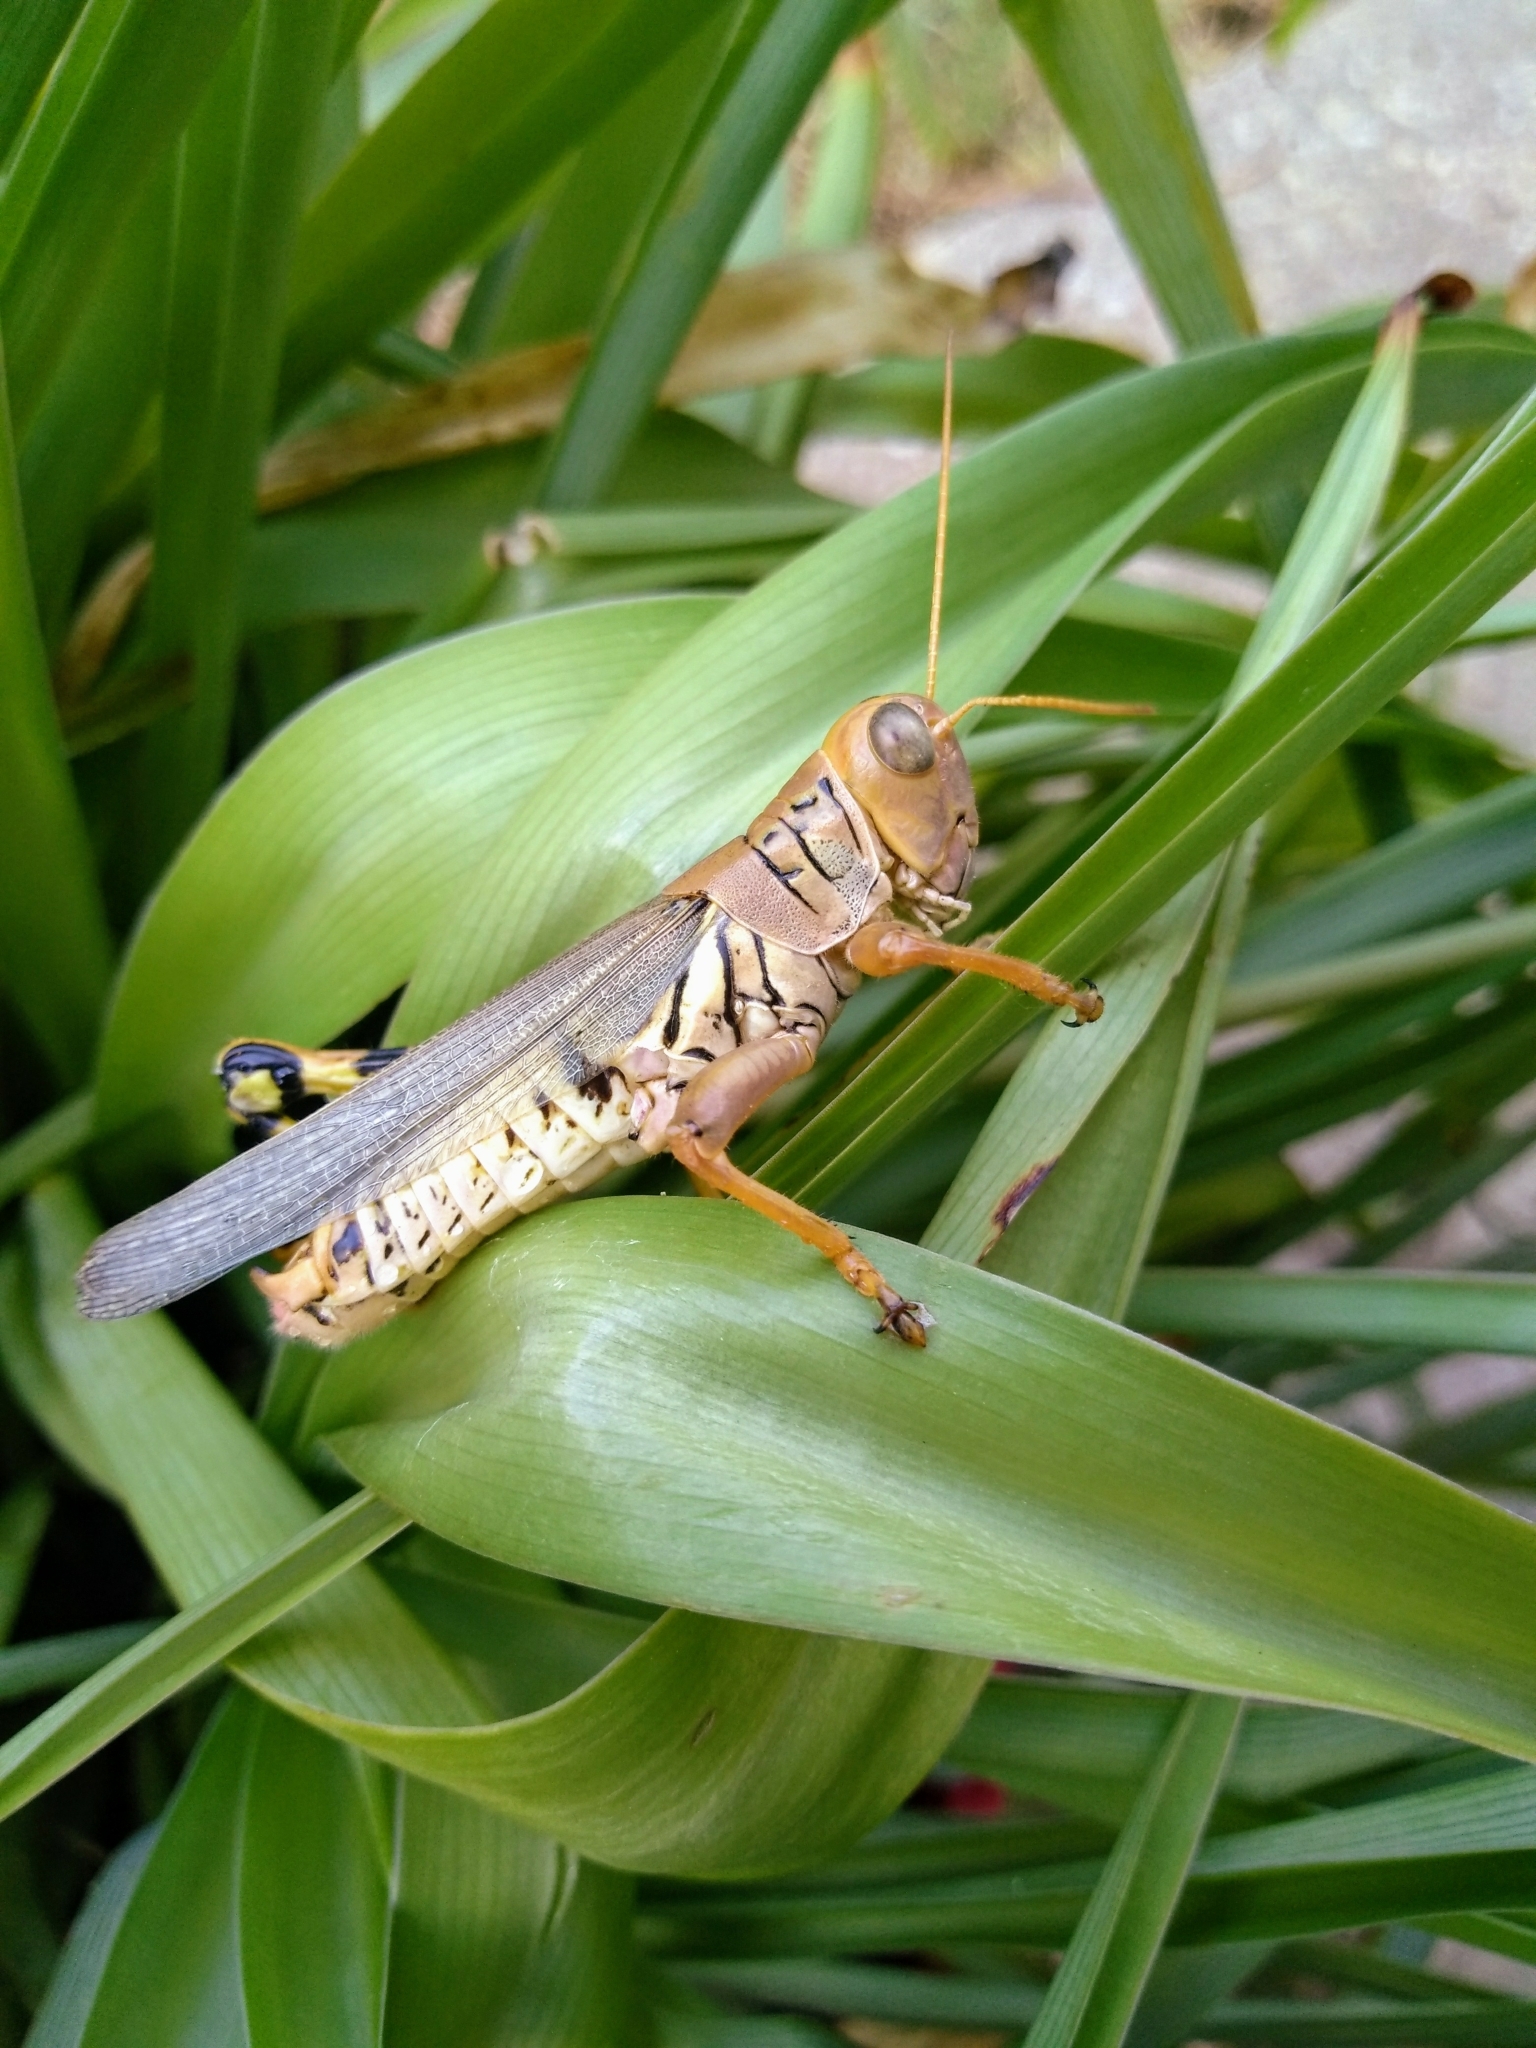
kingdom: Animalia
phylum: Arthropoda
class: Insecta
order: Orthoptera
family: Acrididae
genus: Melanoplus
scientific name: Melanoplus differentialis
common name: Differential grasshopper
